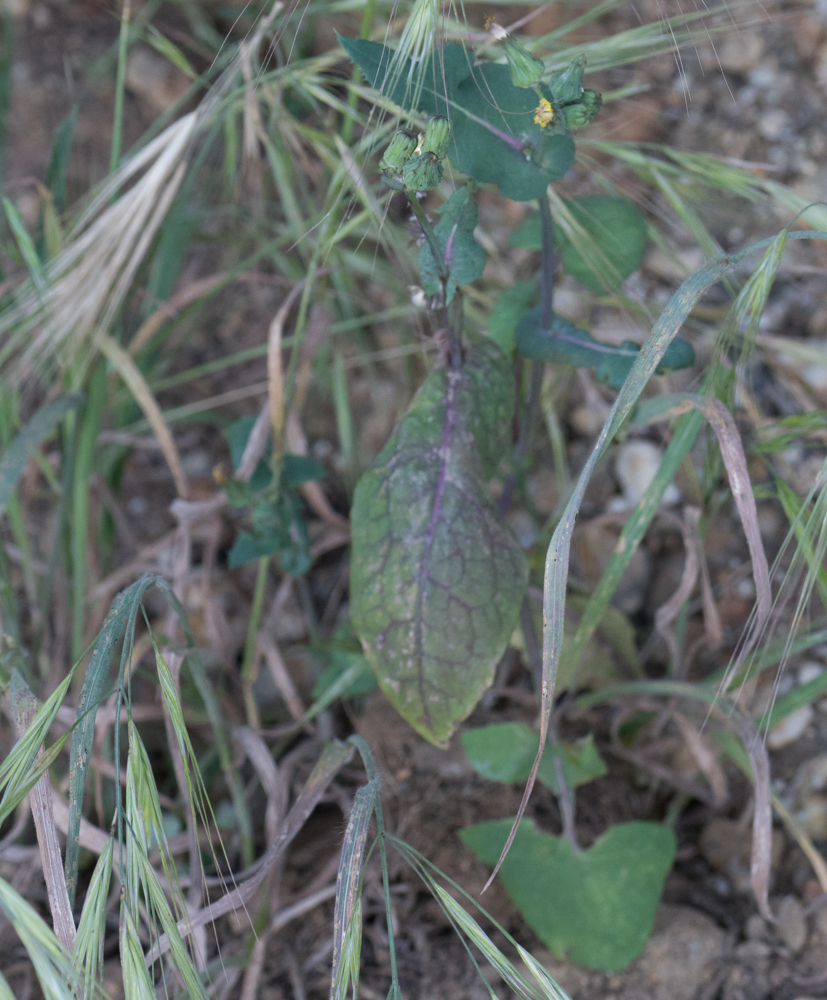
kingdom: Plantae
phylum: Tracheophyta
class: Magnoliopsida
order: Asterales
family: Asteraceae
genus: Sonchus
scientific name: Sonchus oleraceus
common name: Common sowthistle
